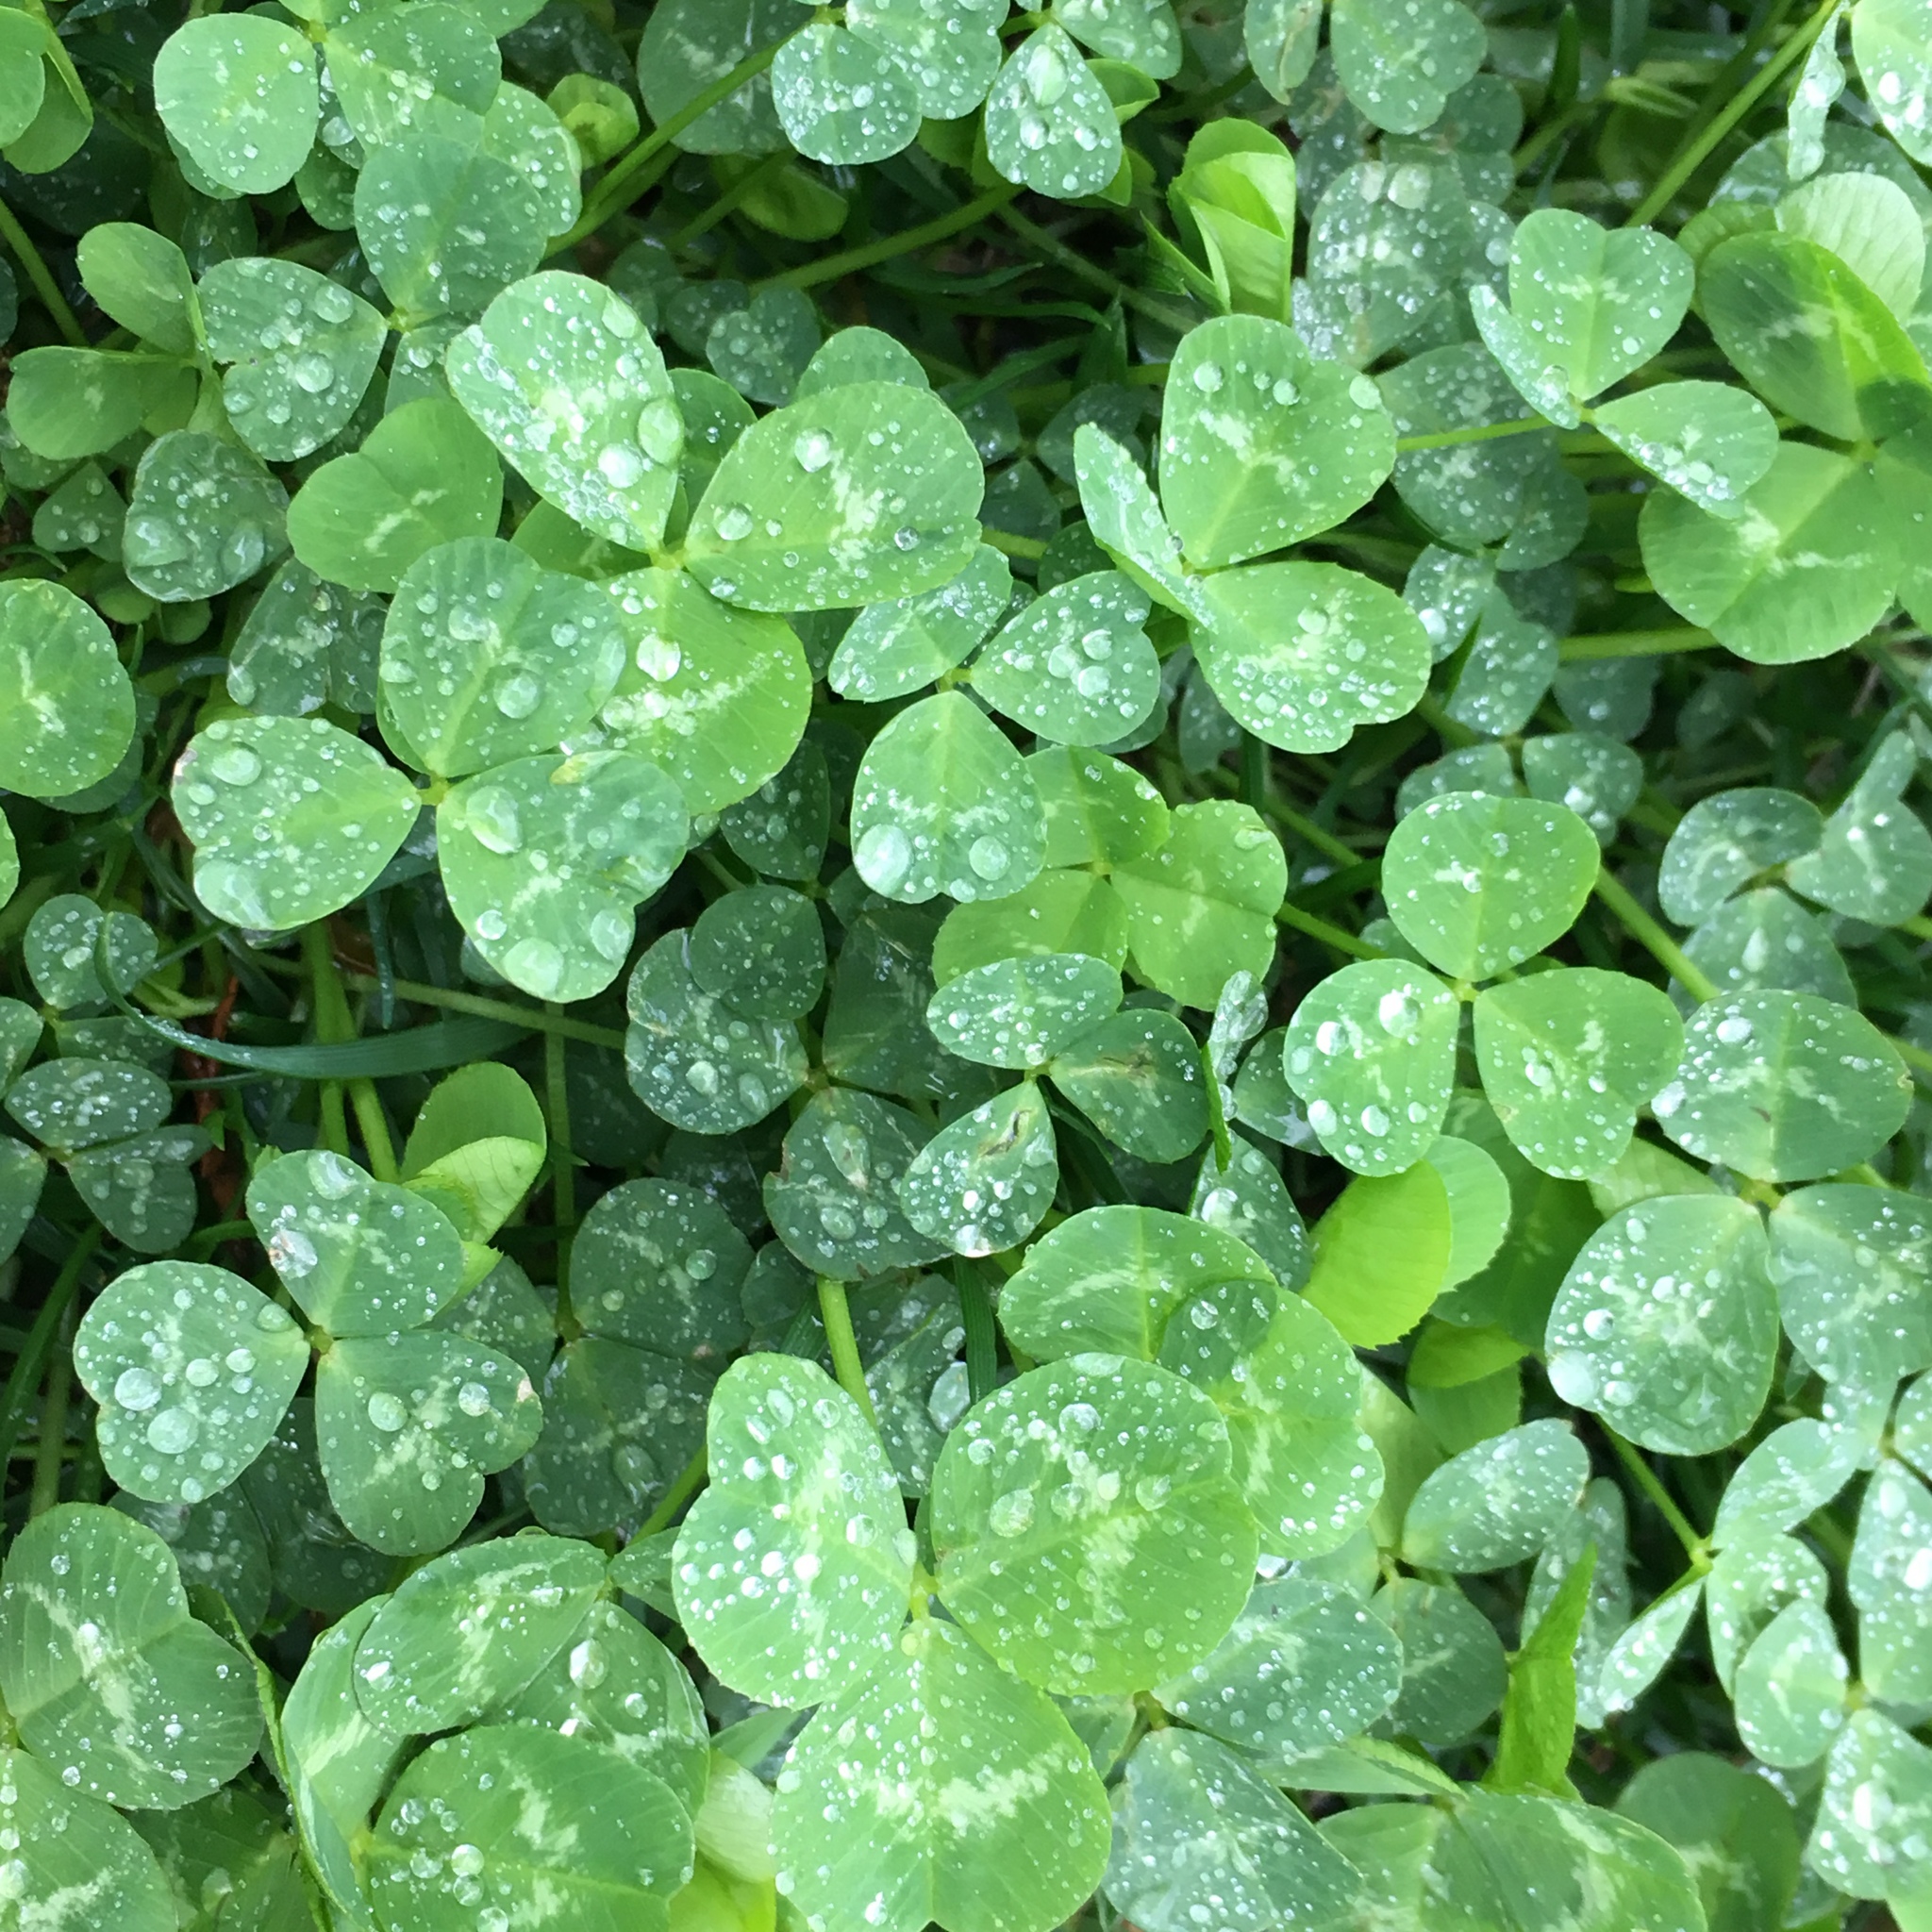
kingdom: Plantae
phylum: Tracheophyta
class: Magnoliopsida
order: Fabales
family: Fabaceae
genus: Trifolium
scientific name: Trifolium repens
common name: White clover
